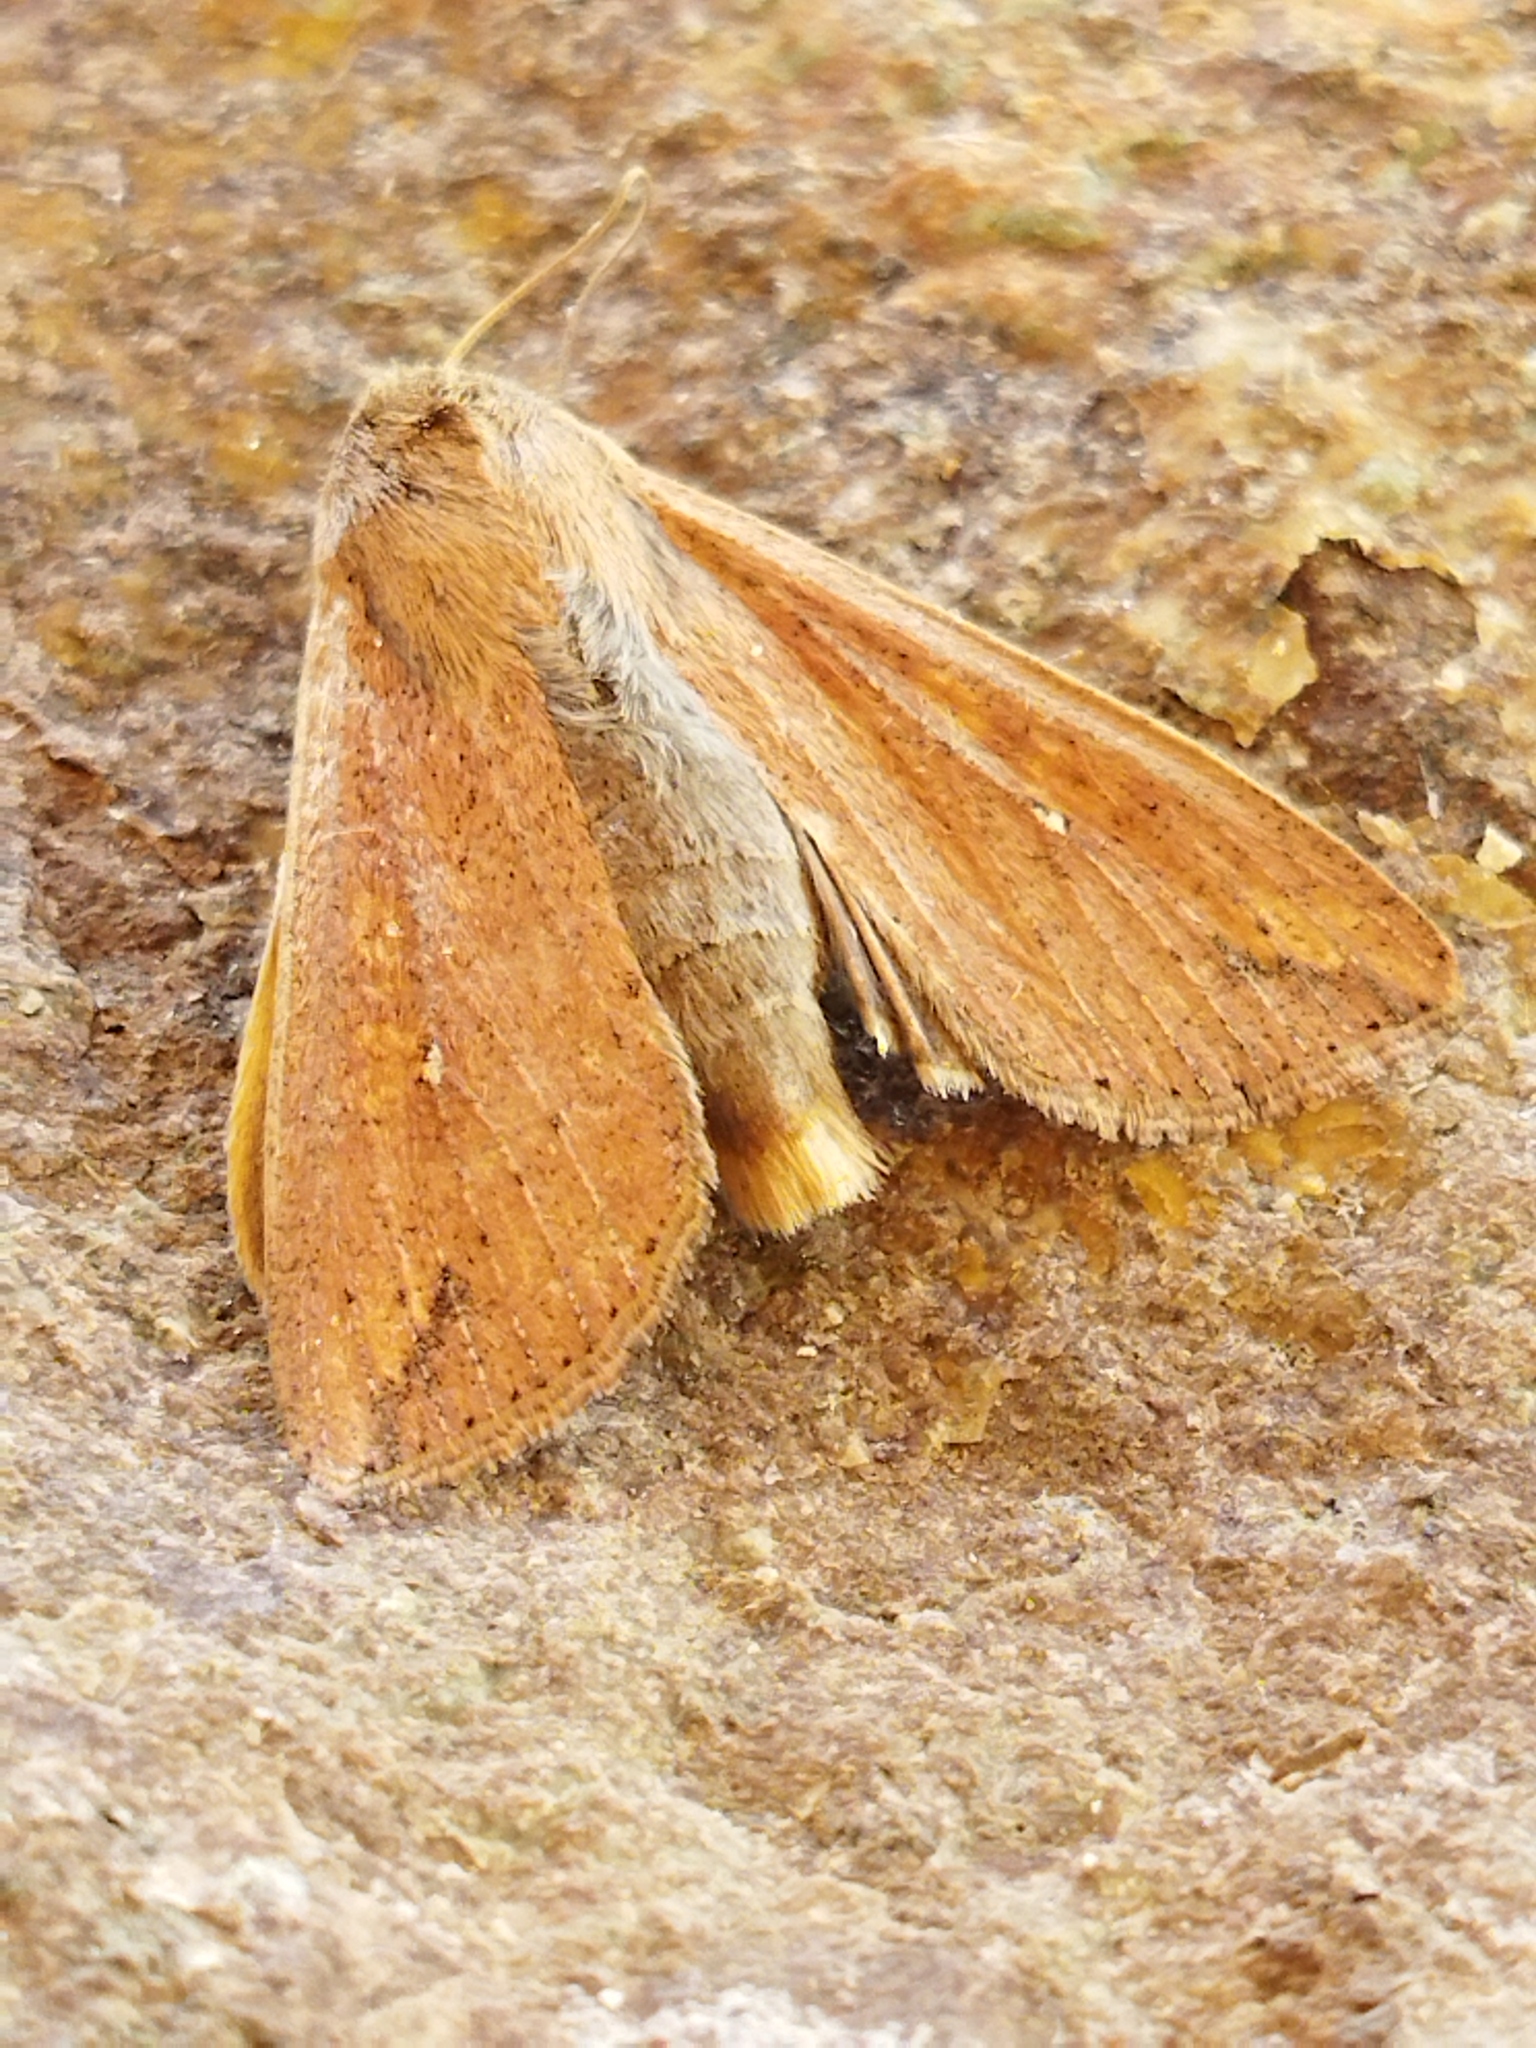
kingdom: Animalia
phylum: Arthropoda
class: Insecta
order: Lepidoptera
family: Noctuidae
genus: Mythimna
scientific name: Mythimna unipuncta
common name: White-speck
